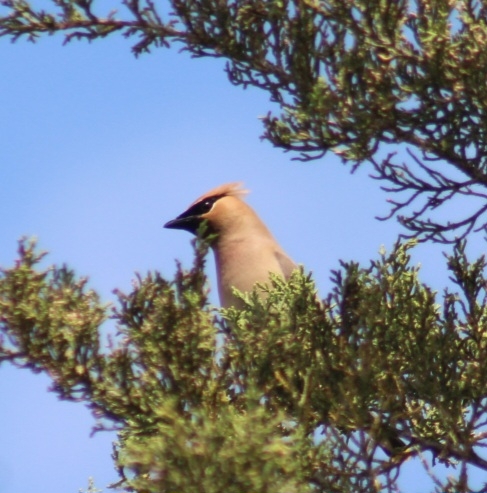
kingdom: Animalia
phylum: Chordata
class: Aves
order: Passeriformes
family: Bombycillidae
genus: Bombycilla
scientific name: Bombycilla cedrorum
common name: Cedar waxwing
